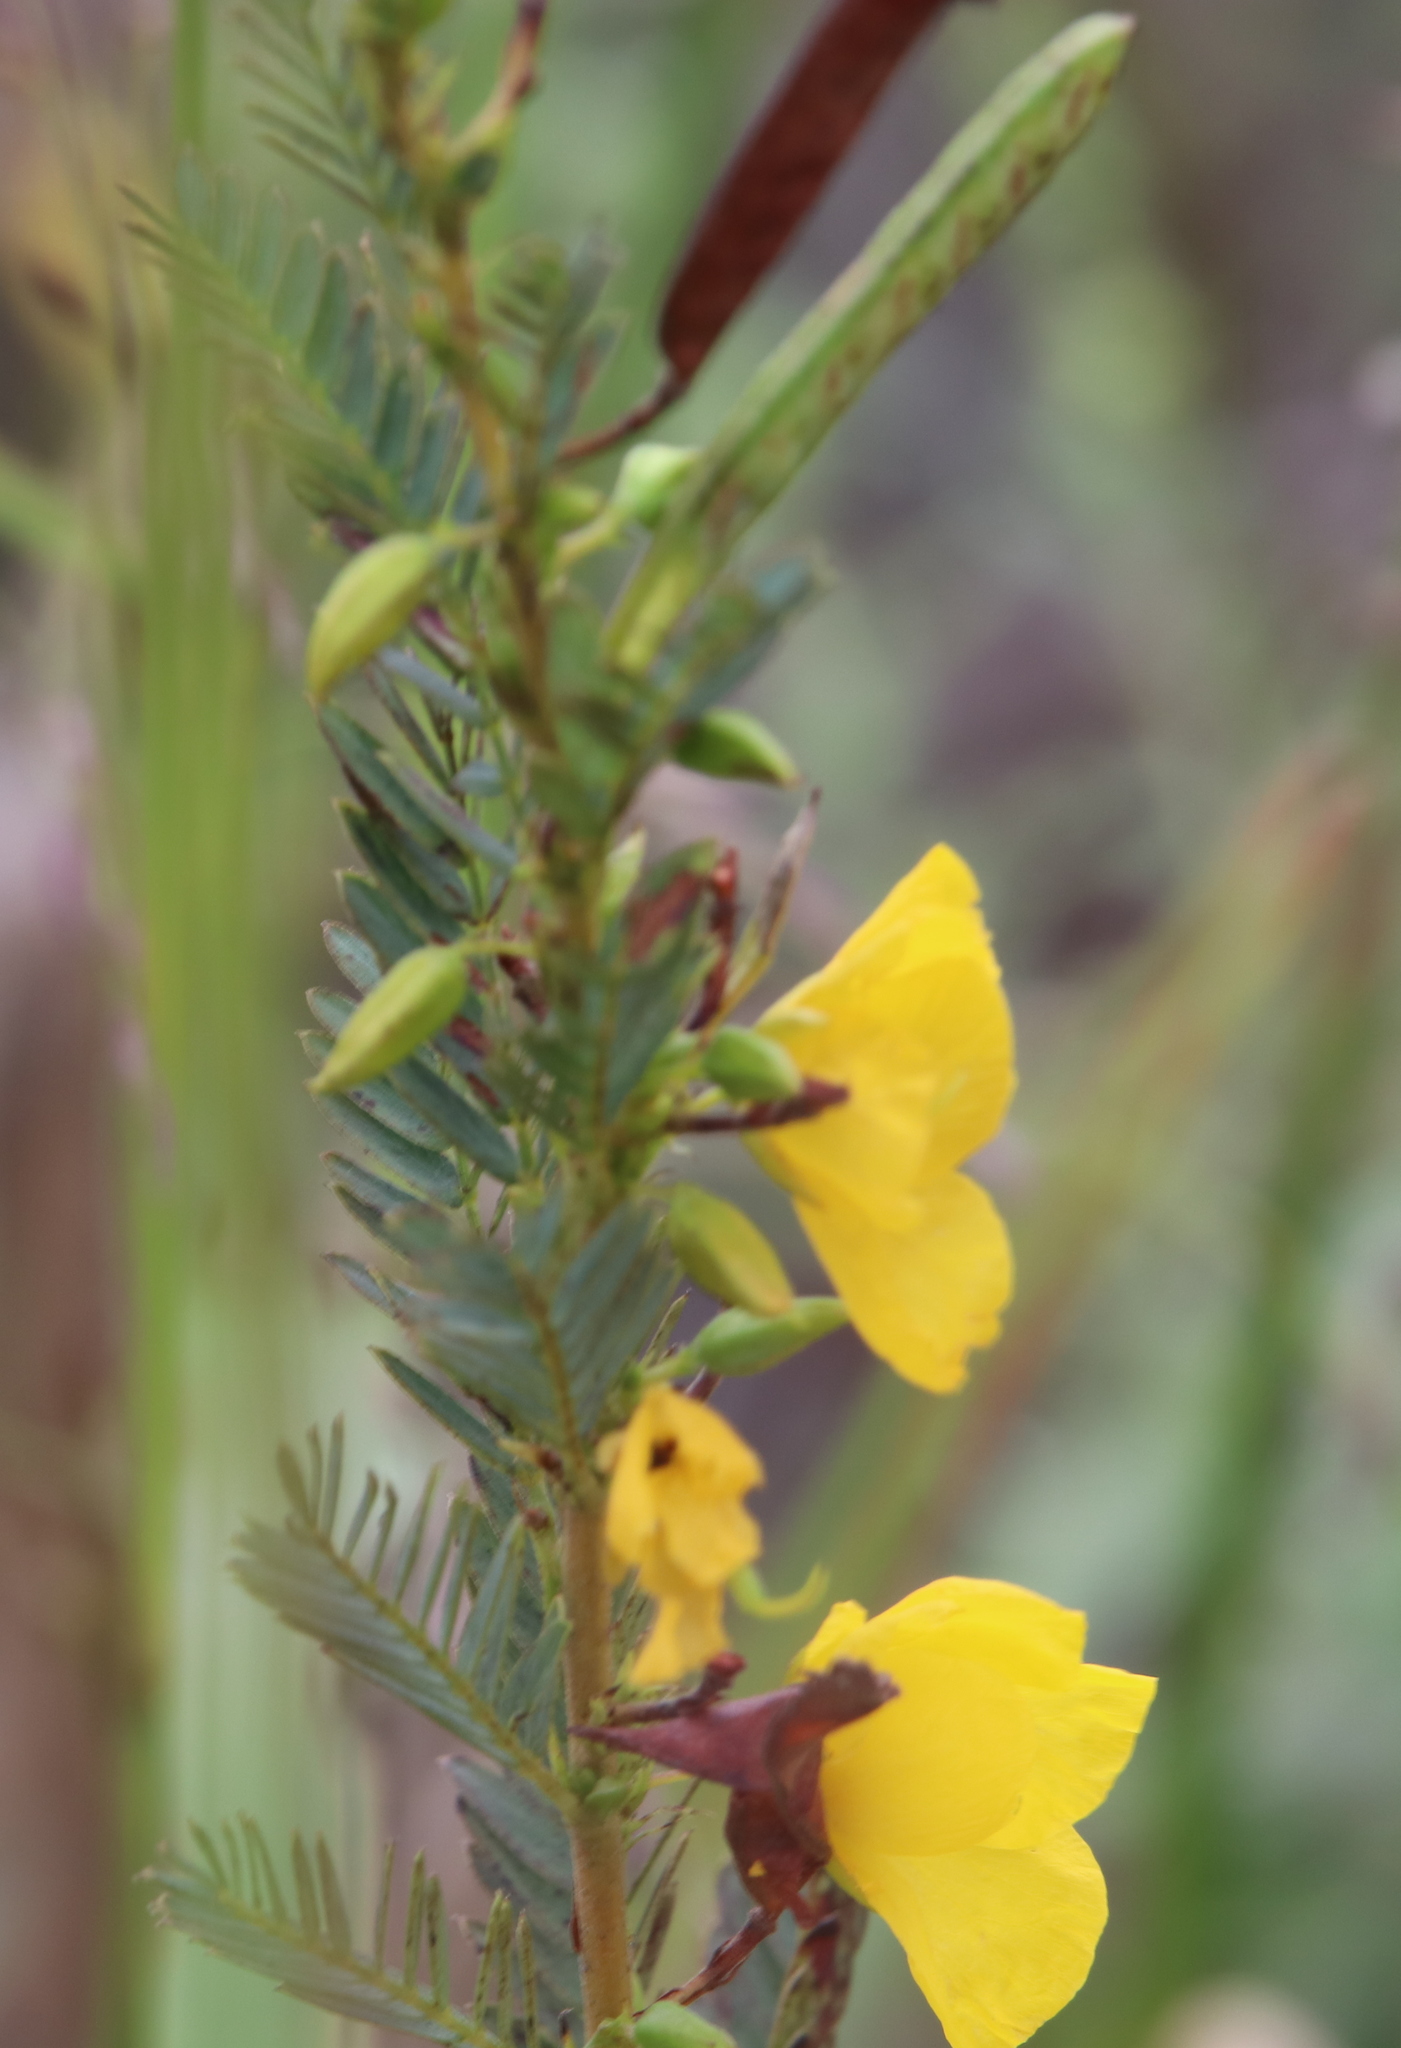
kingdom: Plantae
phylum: Tracheophyta
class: Magnoliopsida
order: Fabales
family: Fabaceae
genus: Chamaecrista
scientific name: Chamaecrista fasciculata
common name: Golden cassia
